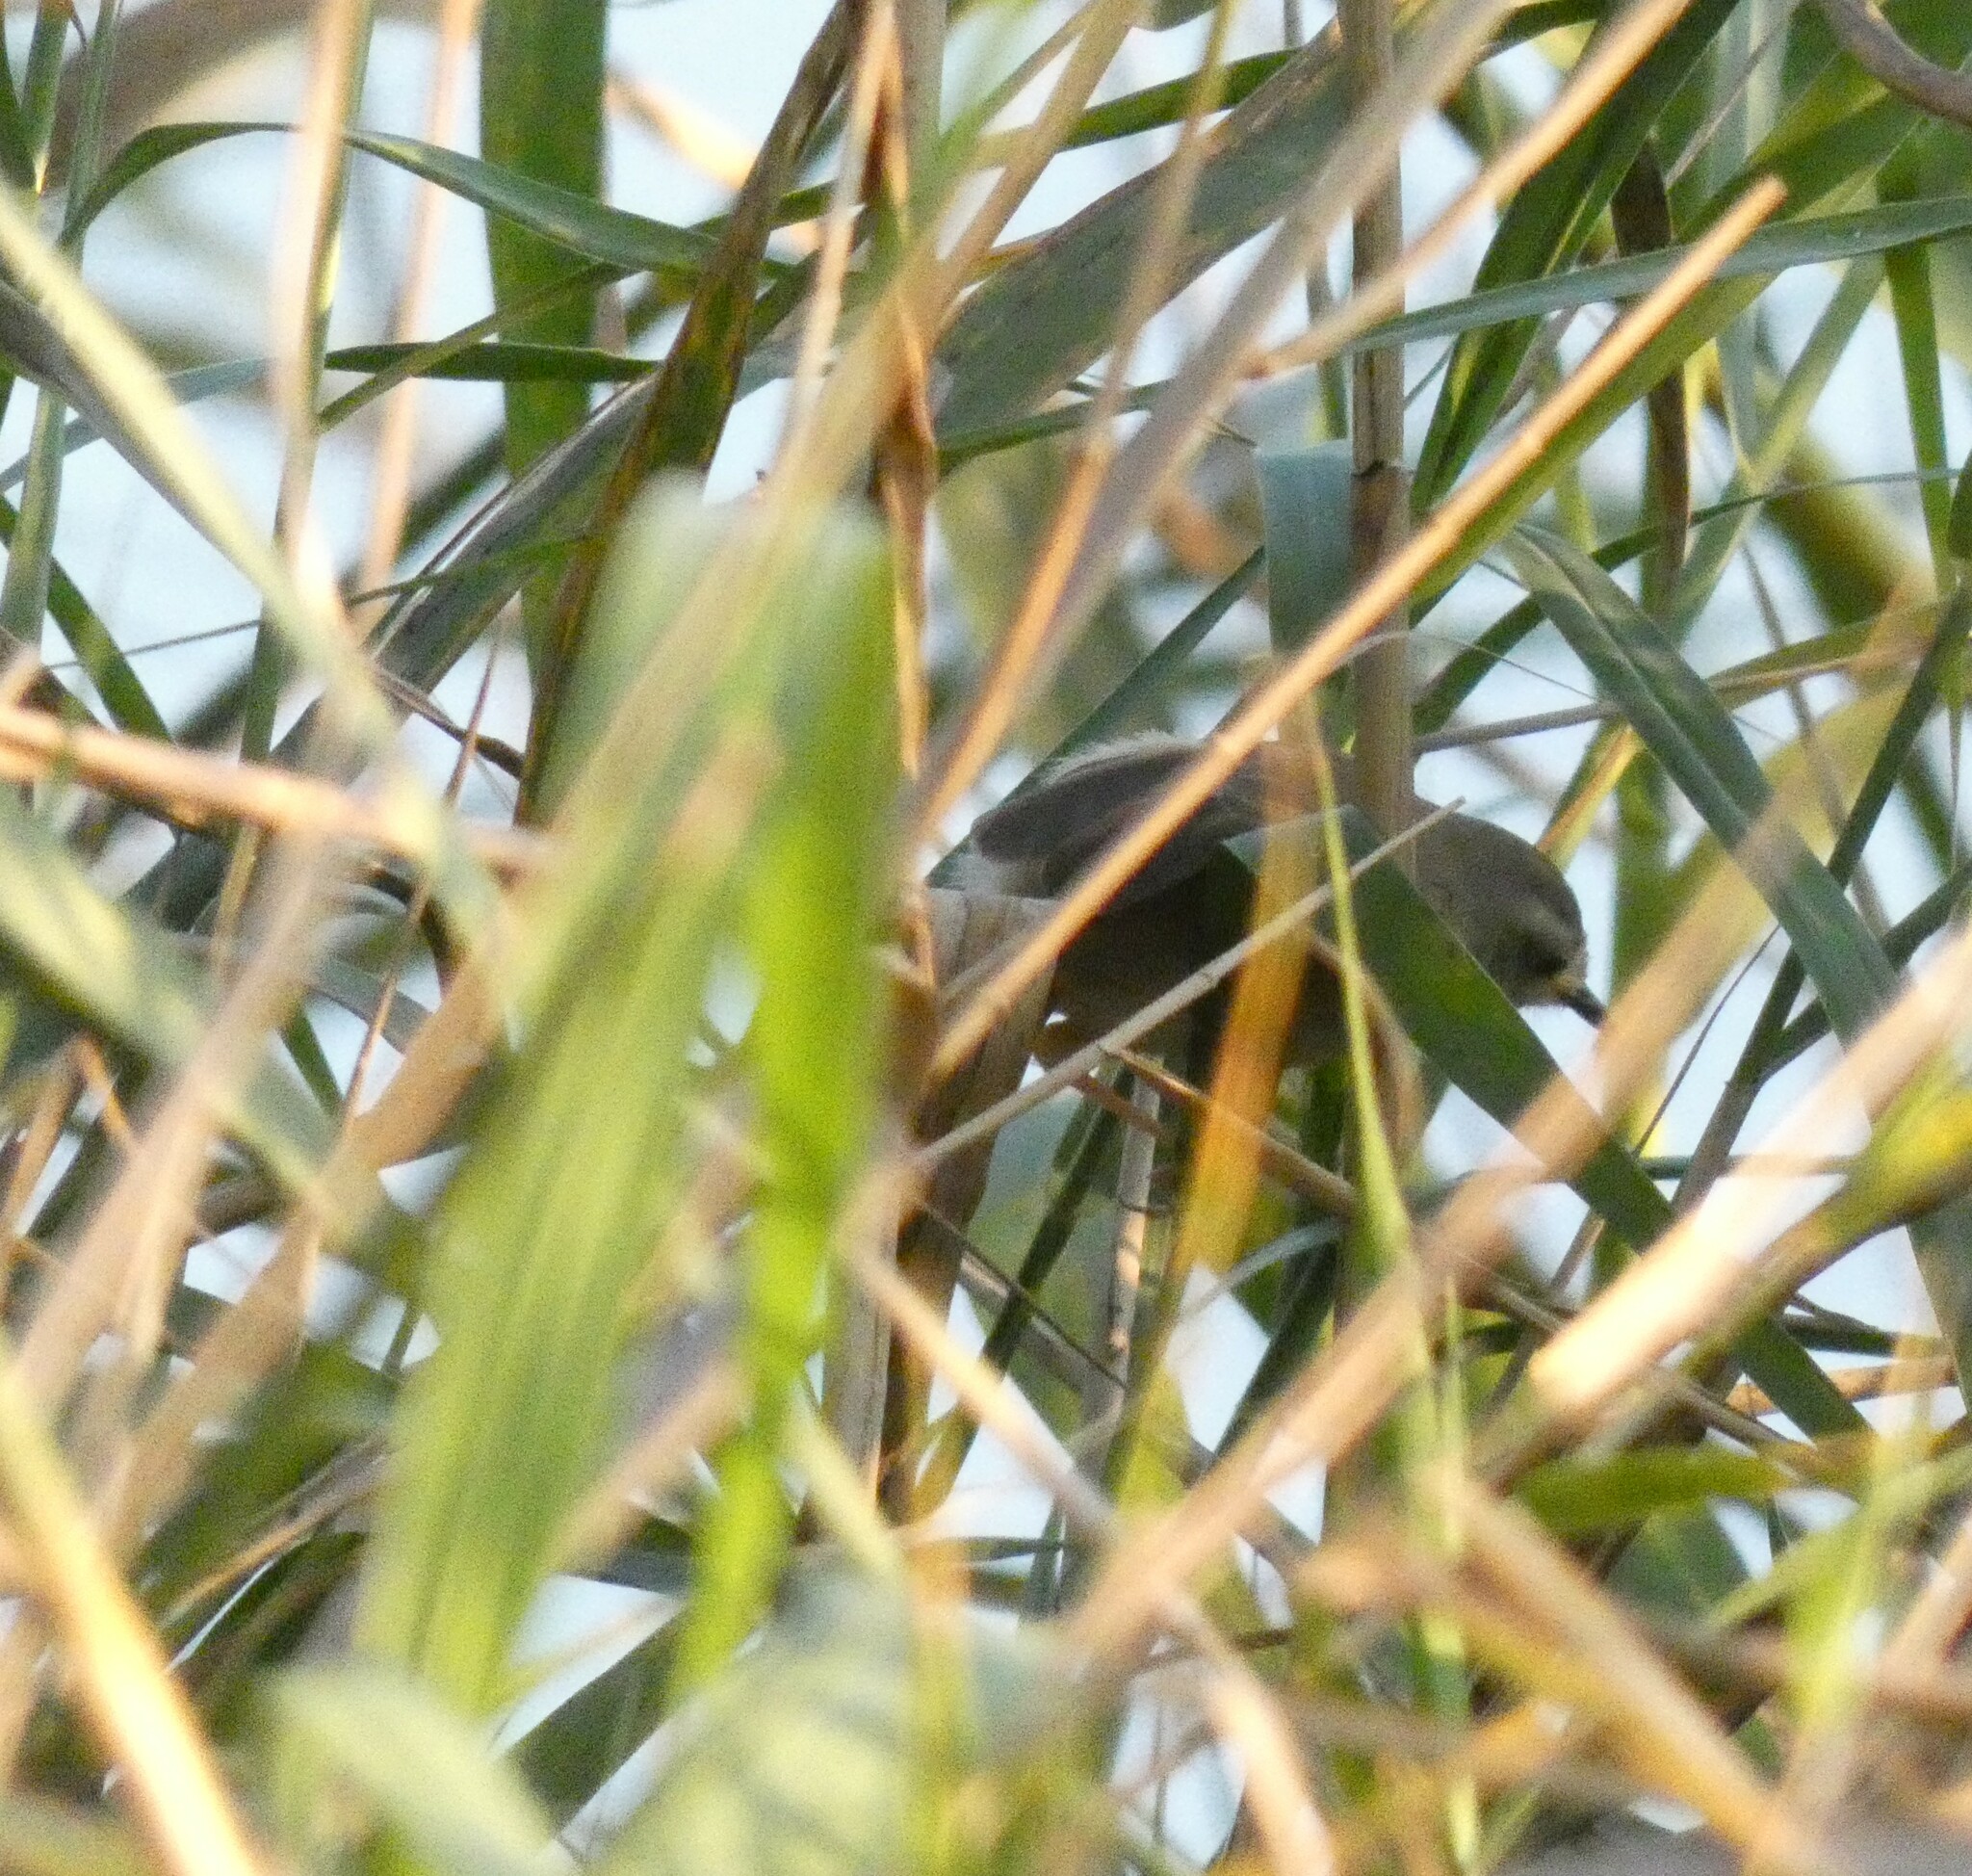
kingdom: Animalia
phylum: Chordata
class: Aves
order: Passeriformes
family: Cisticolidae
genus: Prinia
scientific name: Prinia subflava
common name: Tawny-flanked prinia
